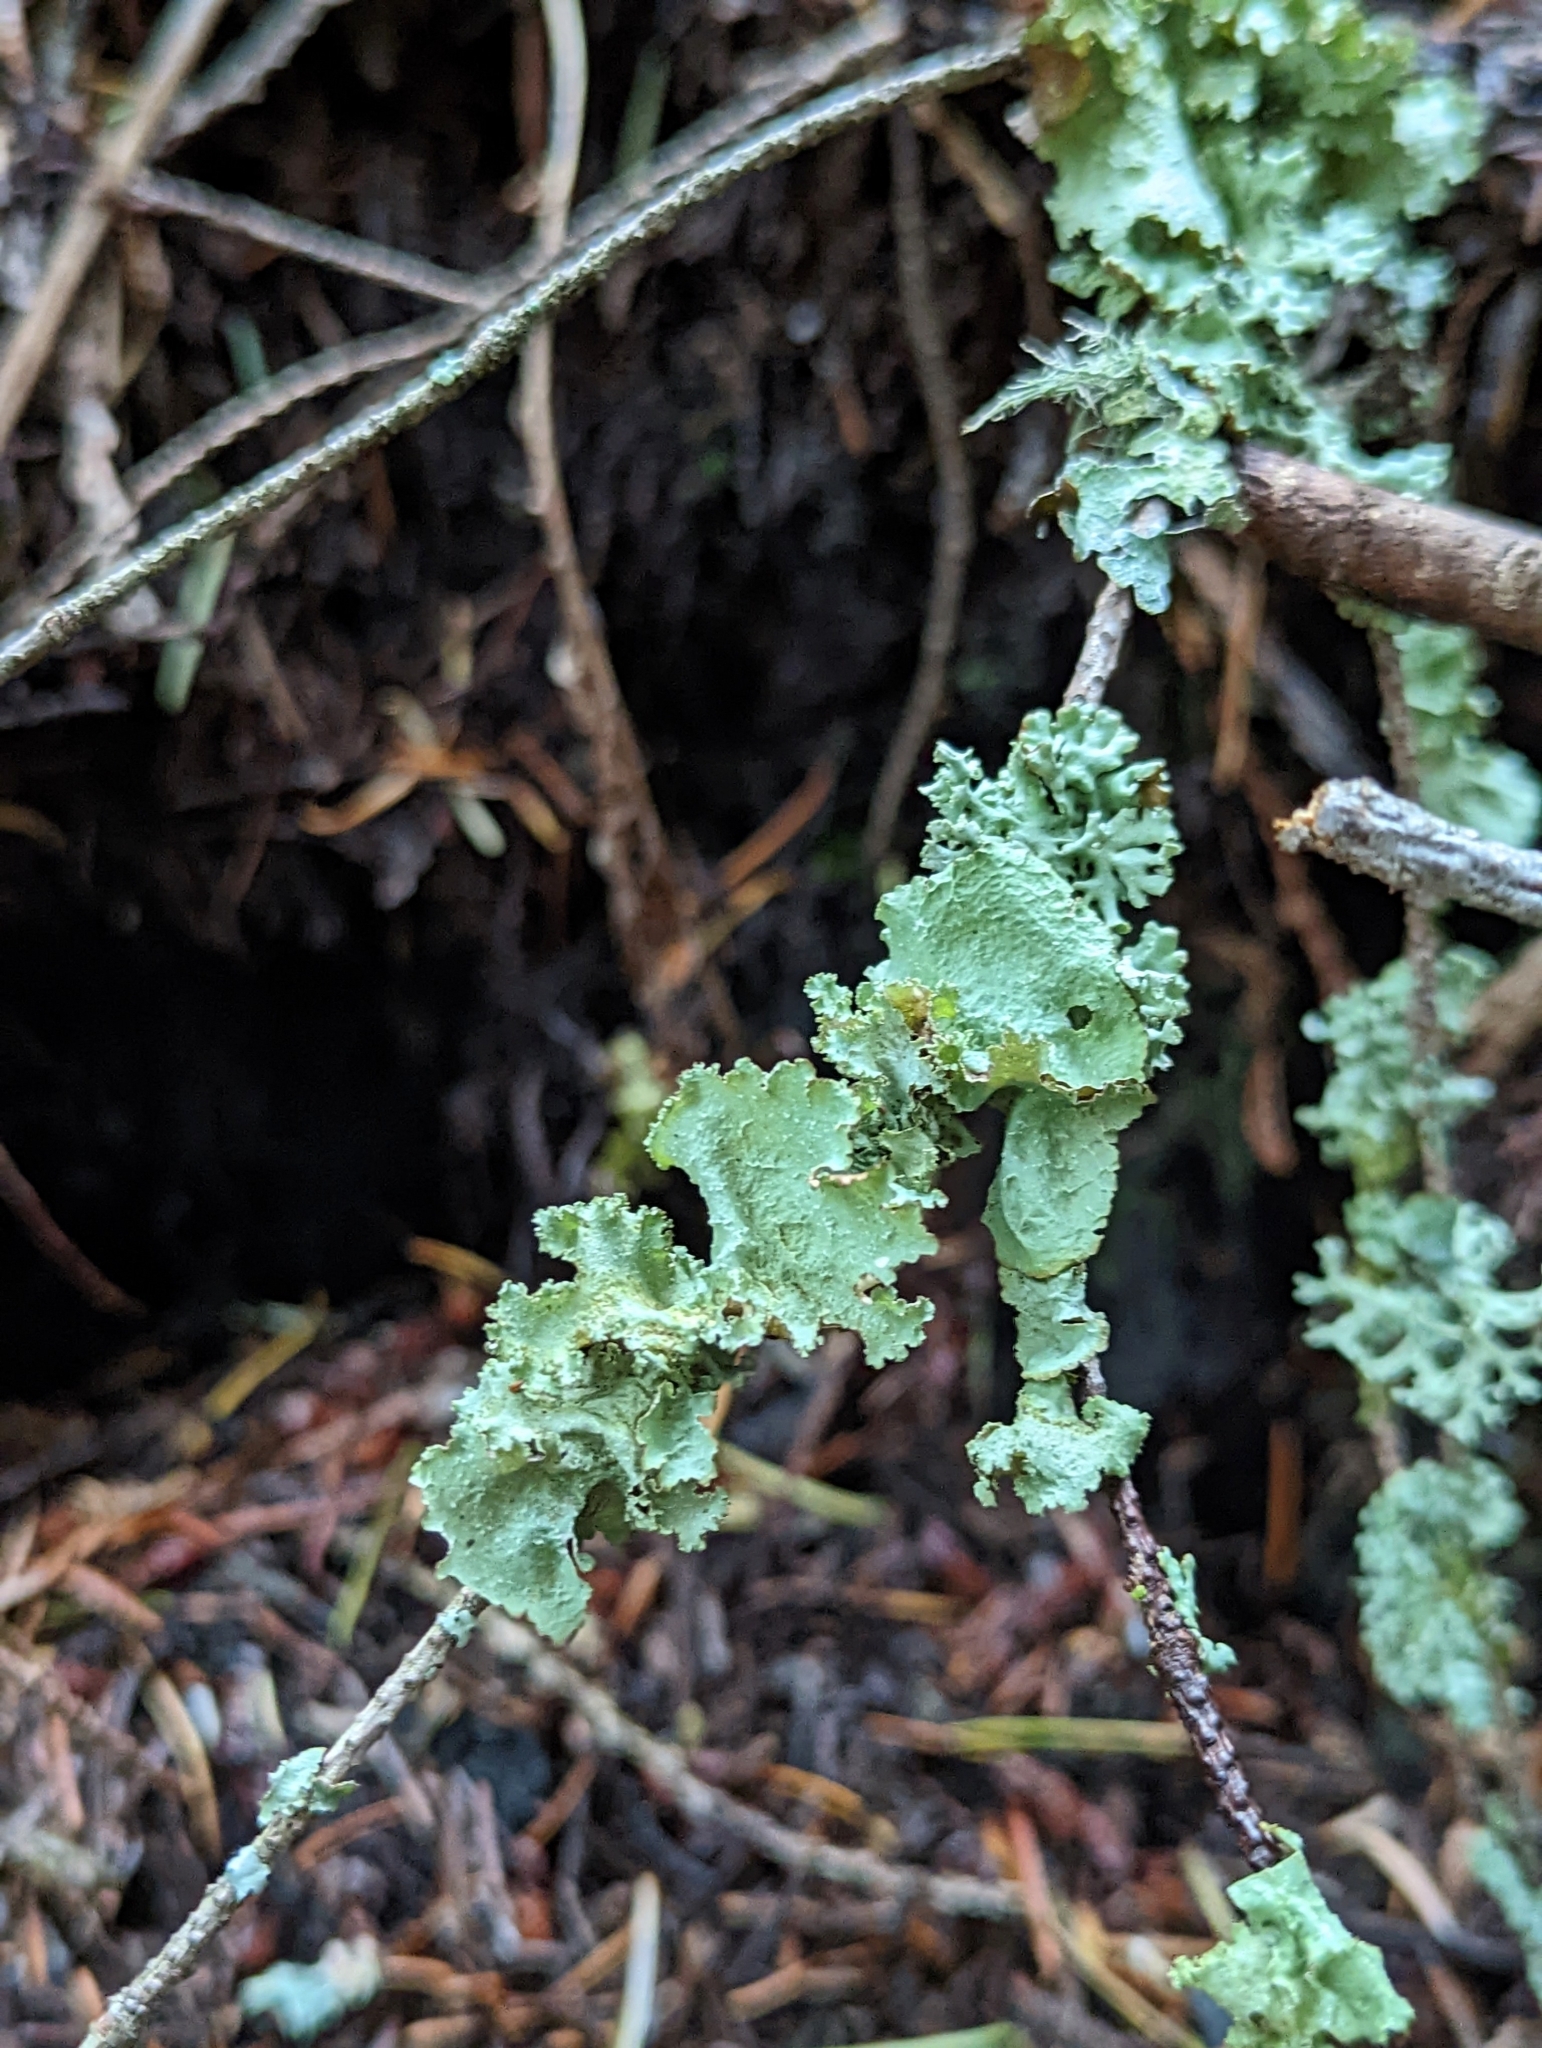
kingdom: Fungi
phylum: Ascomycota
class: Lecanoromycetes
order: Lecanorales
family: Parmeliaceae
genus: Platismatia
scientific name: Platismatia glauca
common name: Varied rag lichen
